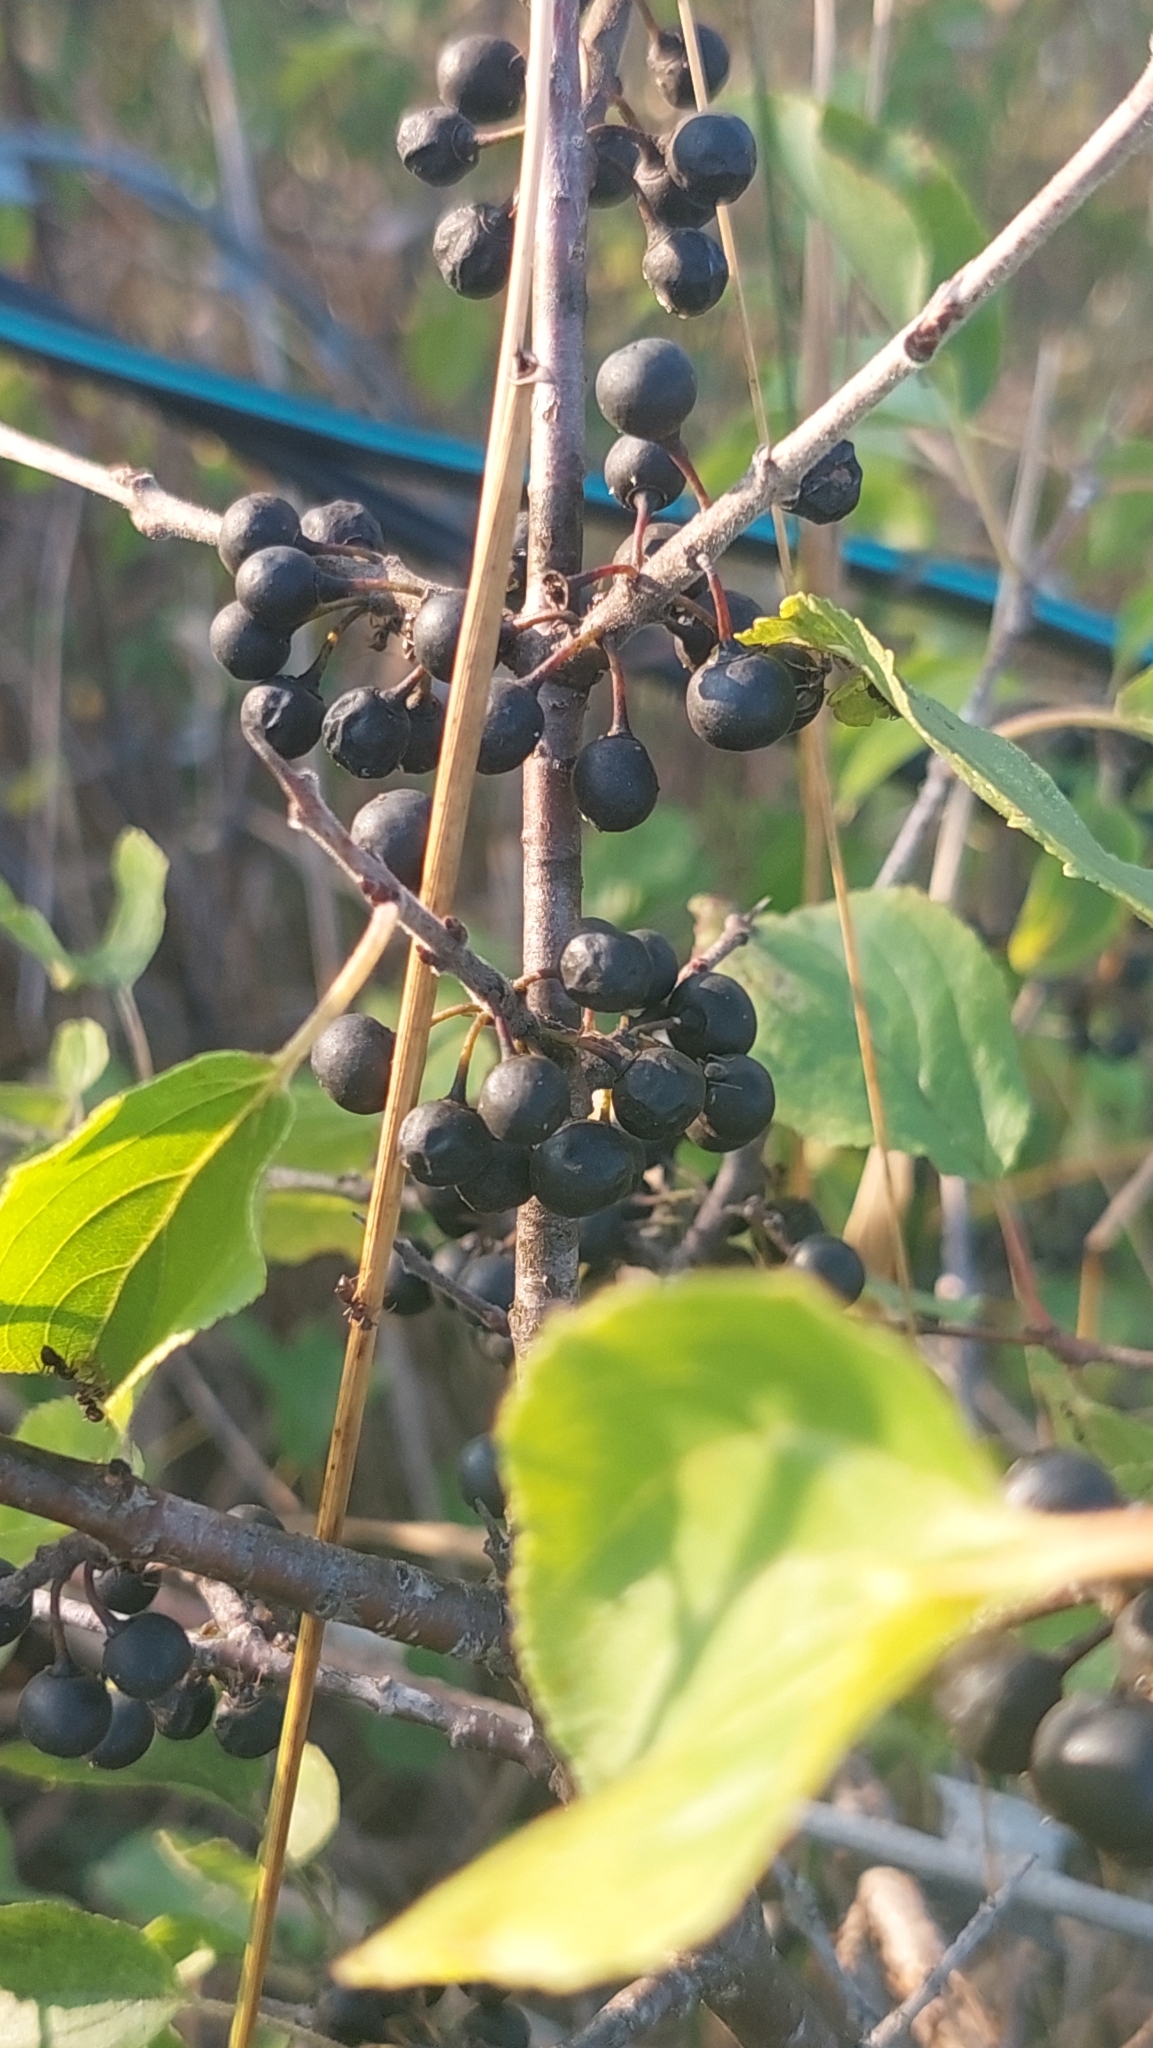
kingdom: Plantae
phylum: Tracheophyta
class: Magnoliopsida
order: Rosales
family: Rhamnaceae
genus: Rhamnus
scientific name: Rhamnus cathartica
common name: Common buckthorn
